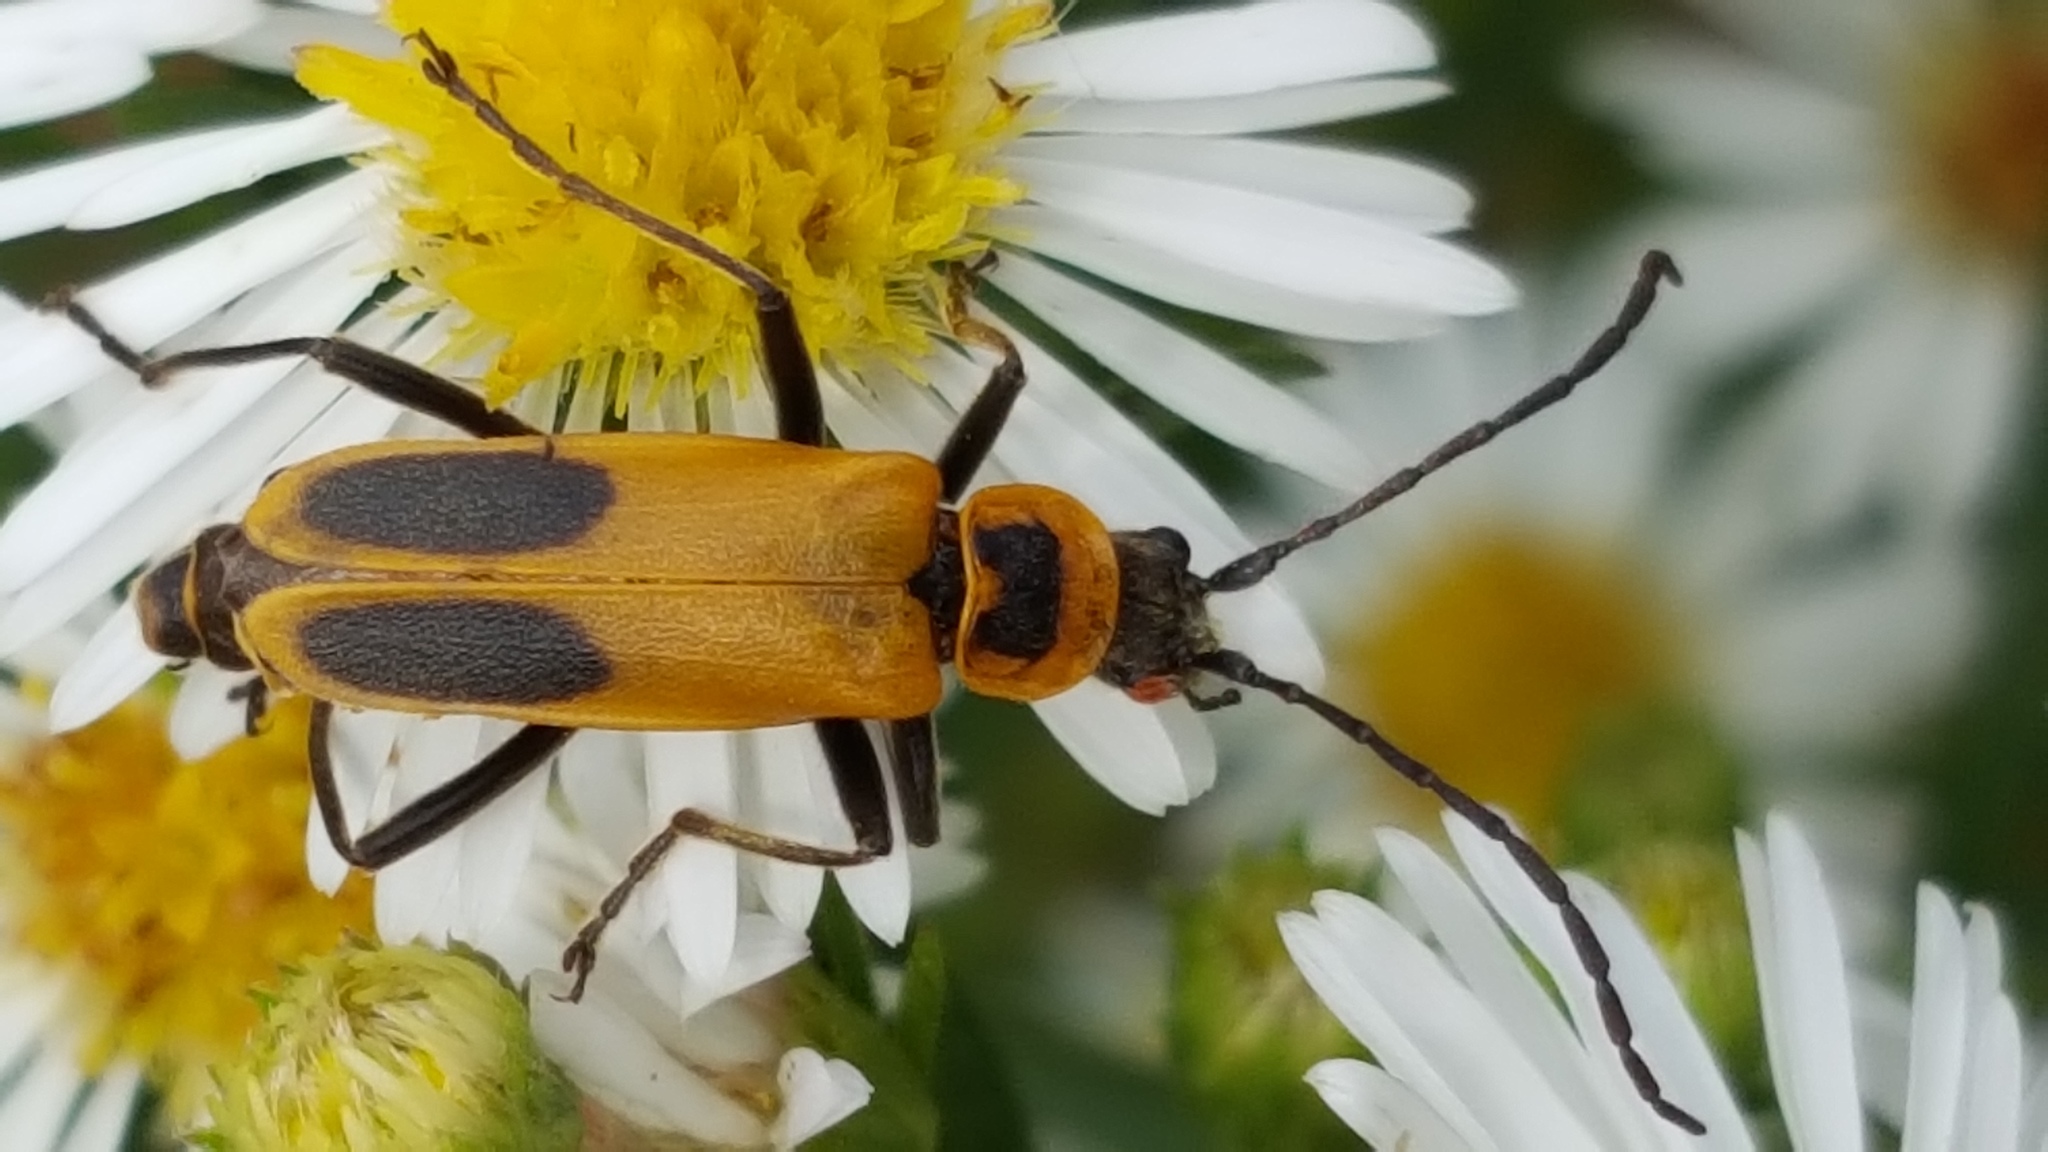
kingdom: Animalia
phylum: Arthropoda
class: Insecta
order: Coleoptera
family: Cantharidae
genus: Chauliognathus
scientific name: Chauliognathus pensylvanicus
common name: Goldenrod soldier beetle
